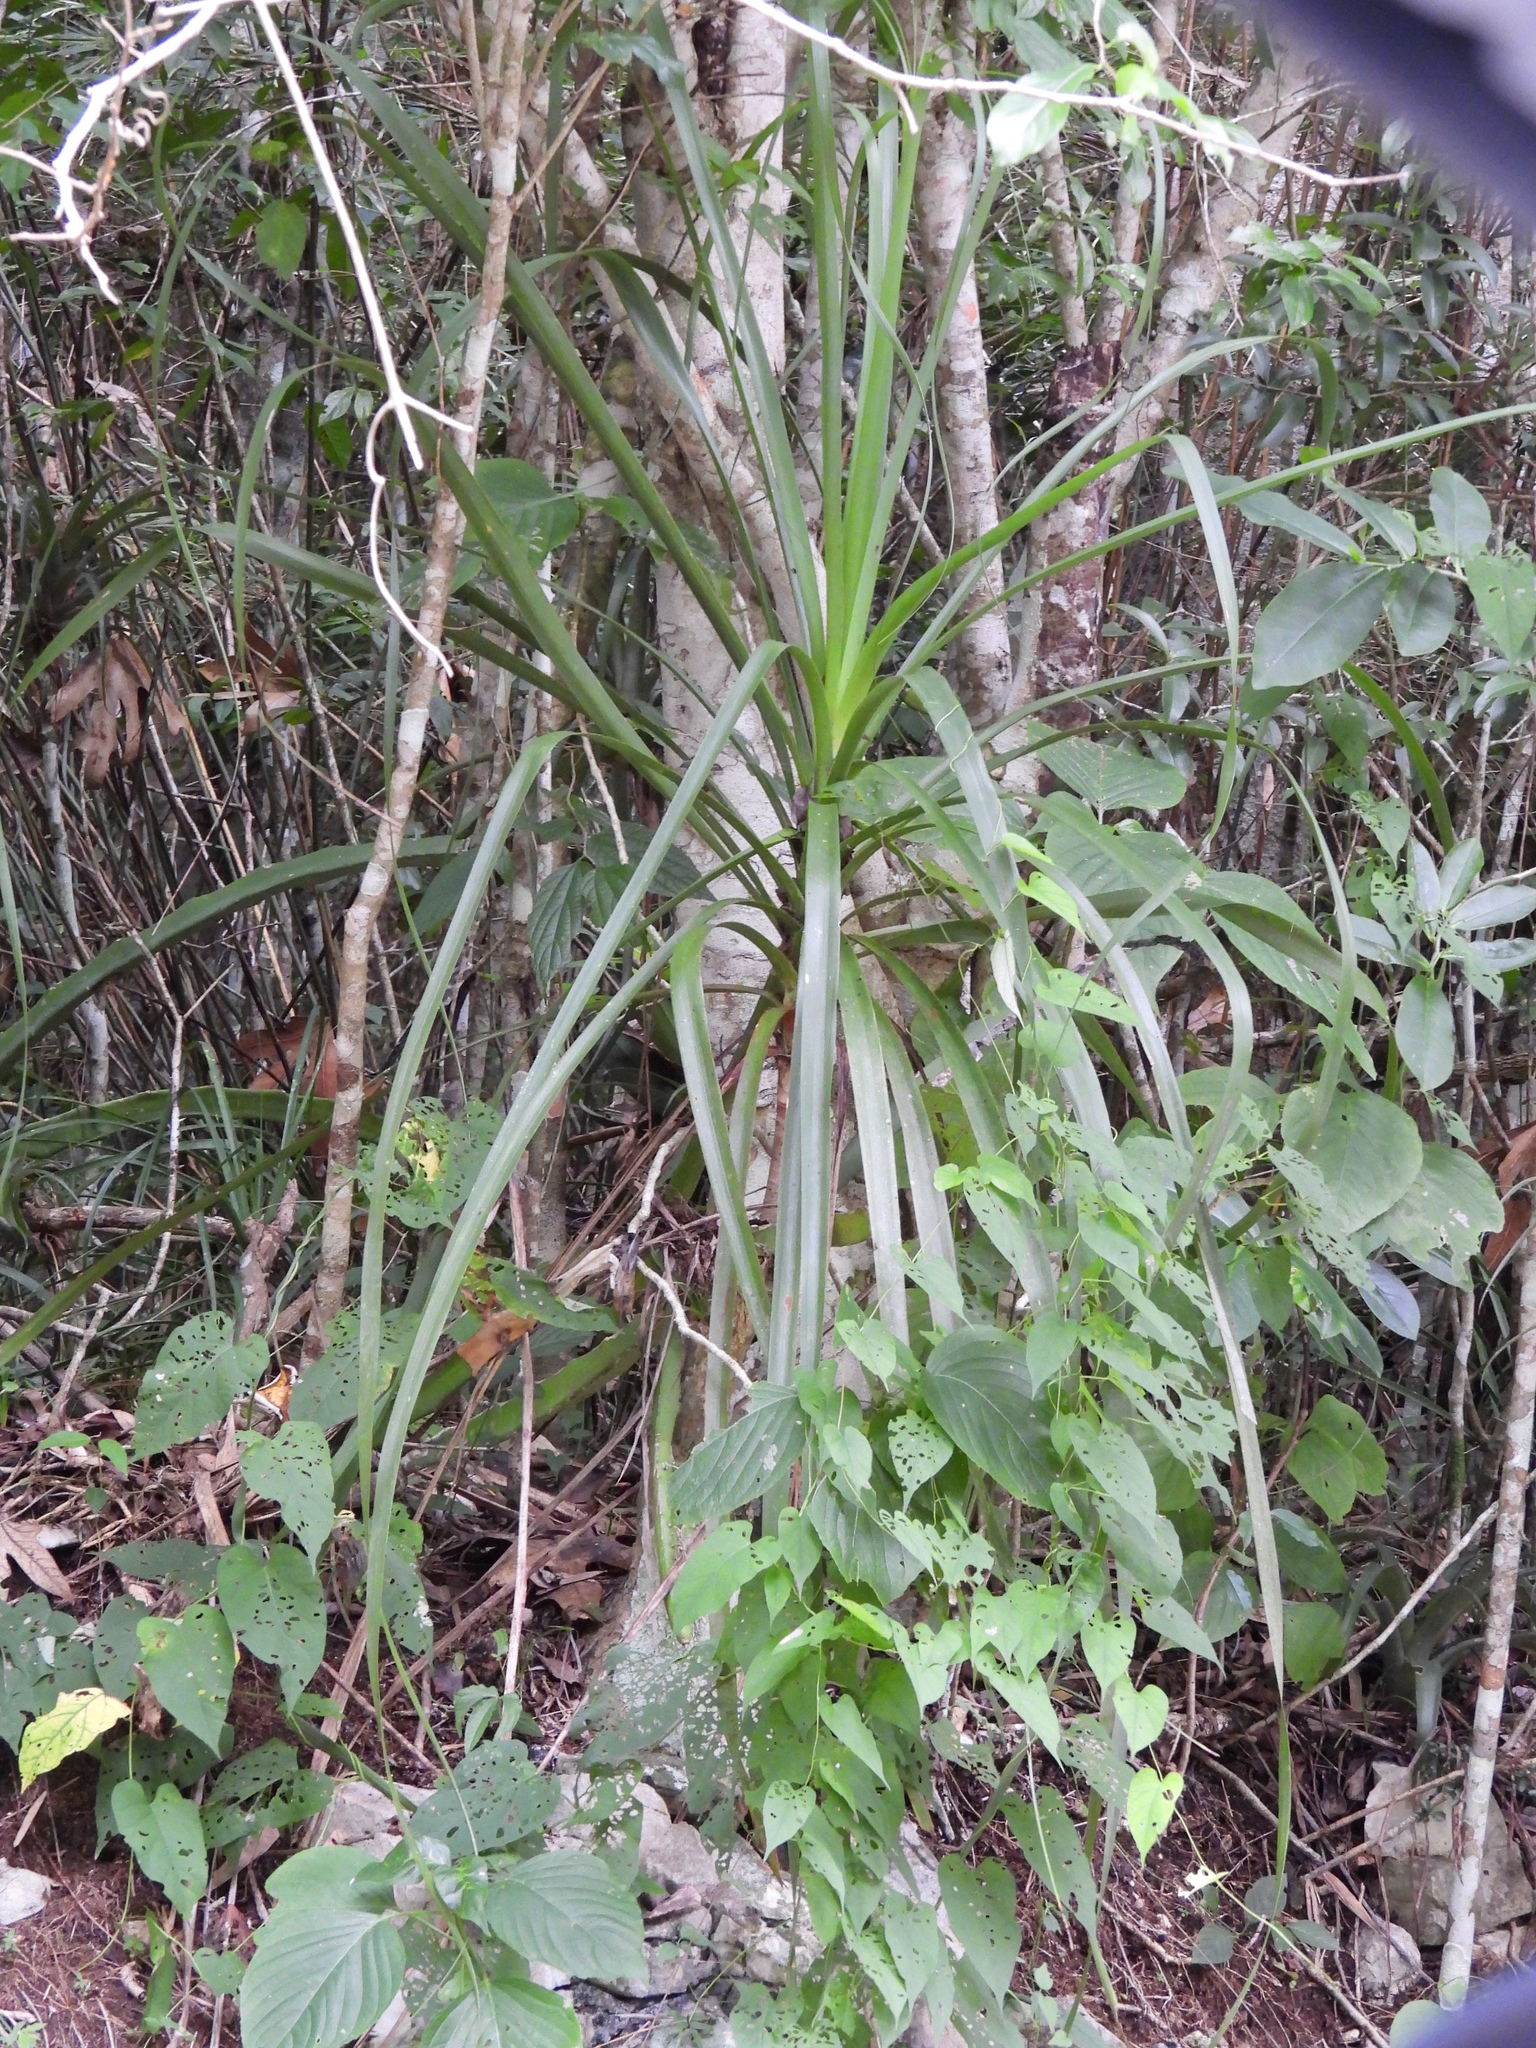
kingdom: Plantae
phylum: Tracheophyta
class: Liliopsida
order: Asparagales
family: Asparagaceae
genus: Beaucarnea
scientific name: Beaucarnea goldmanii
